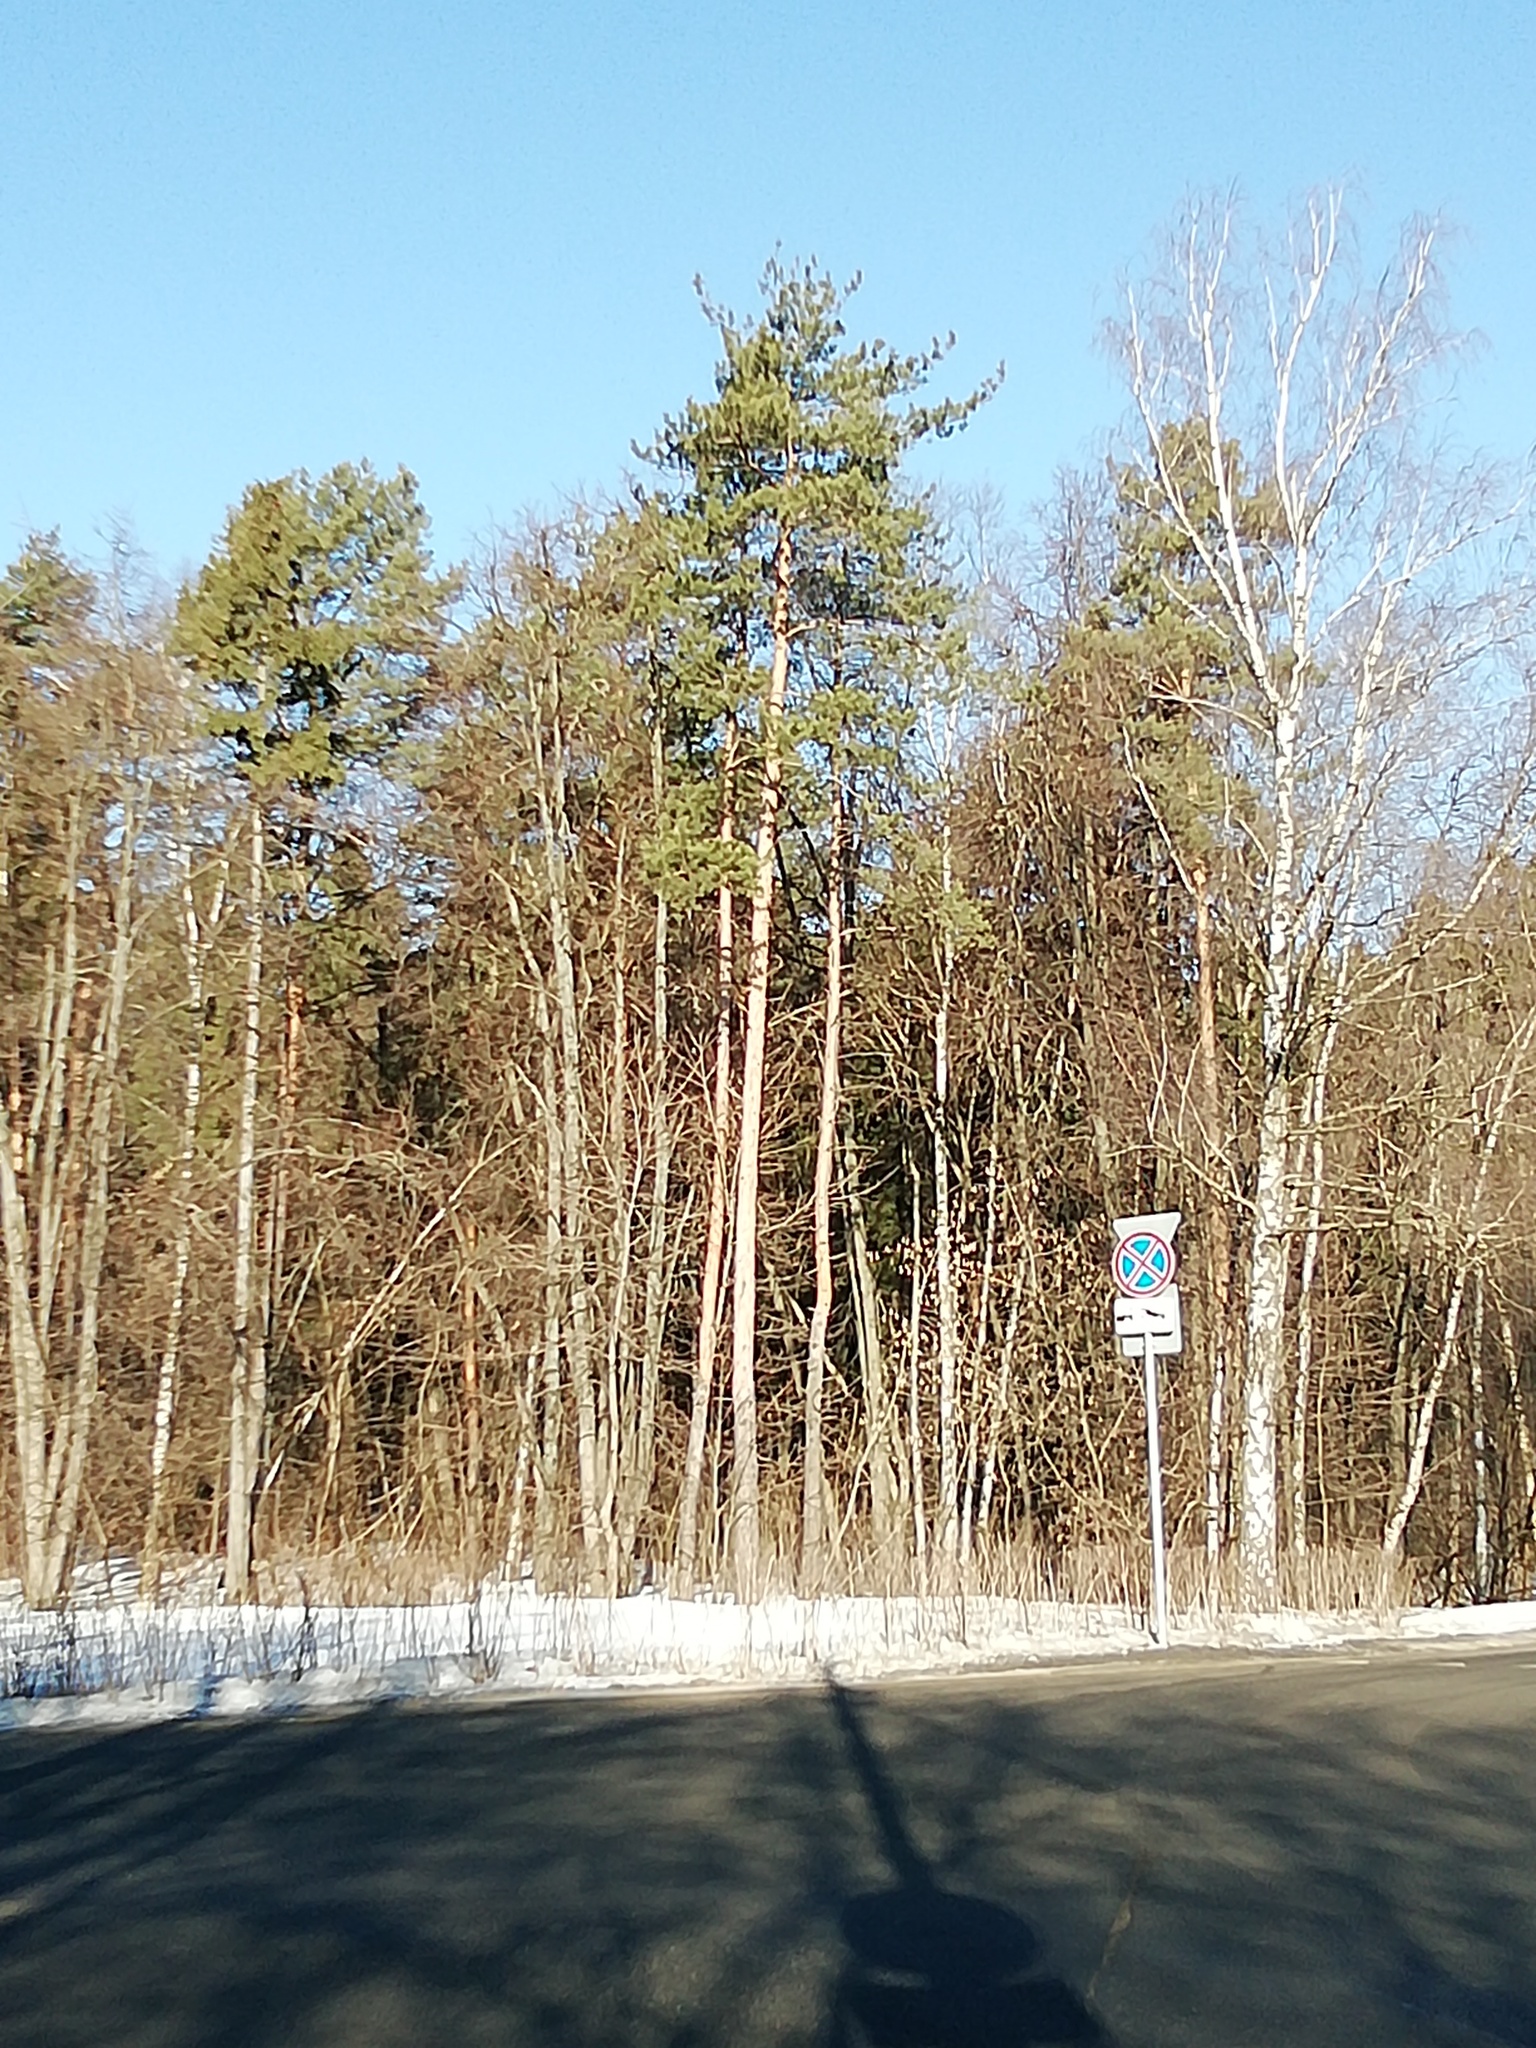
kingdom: Plantae
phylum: Tracheophyta
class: Pinopsida
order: Pinales
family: Pinaceae
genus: Pinus
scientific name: Pinus sylvestris
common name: Scots pine
